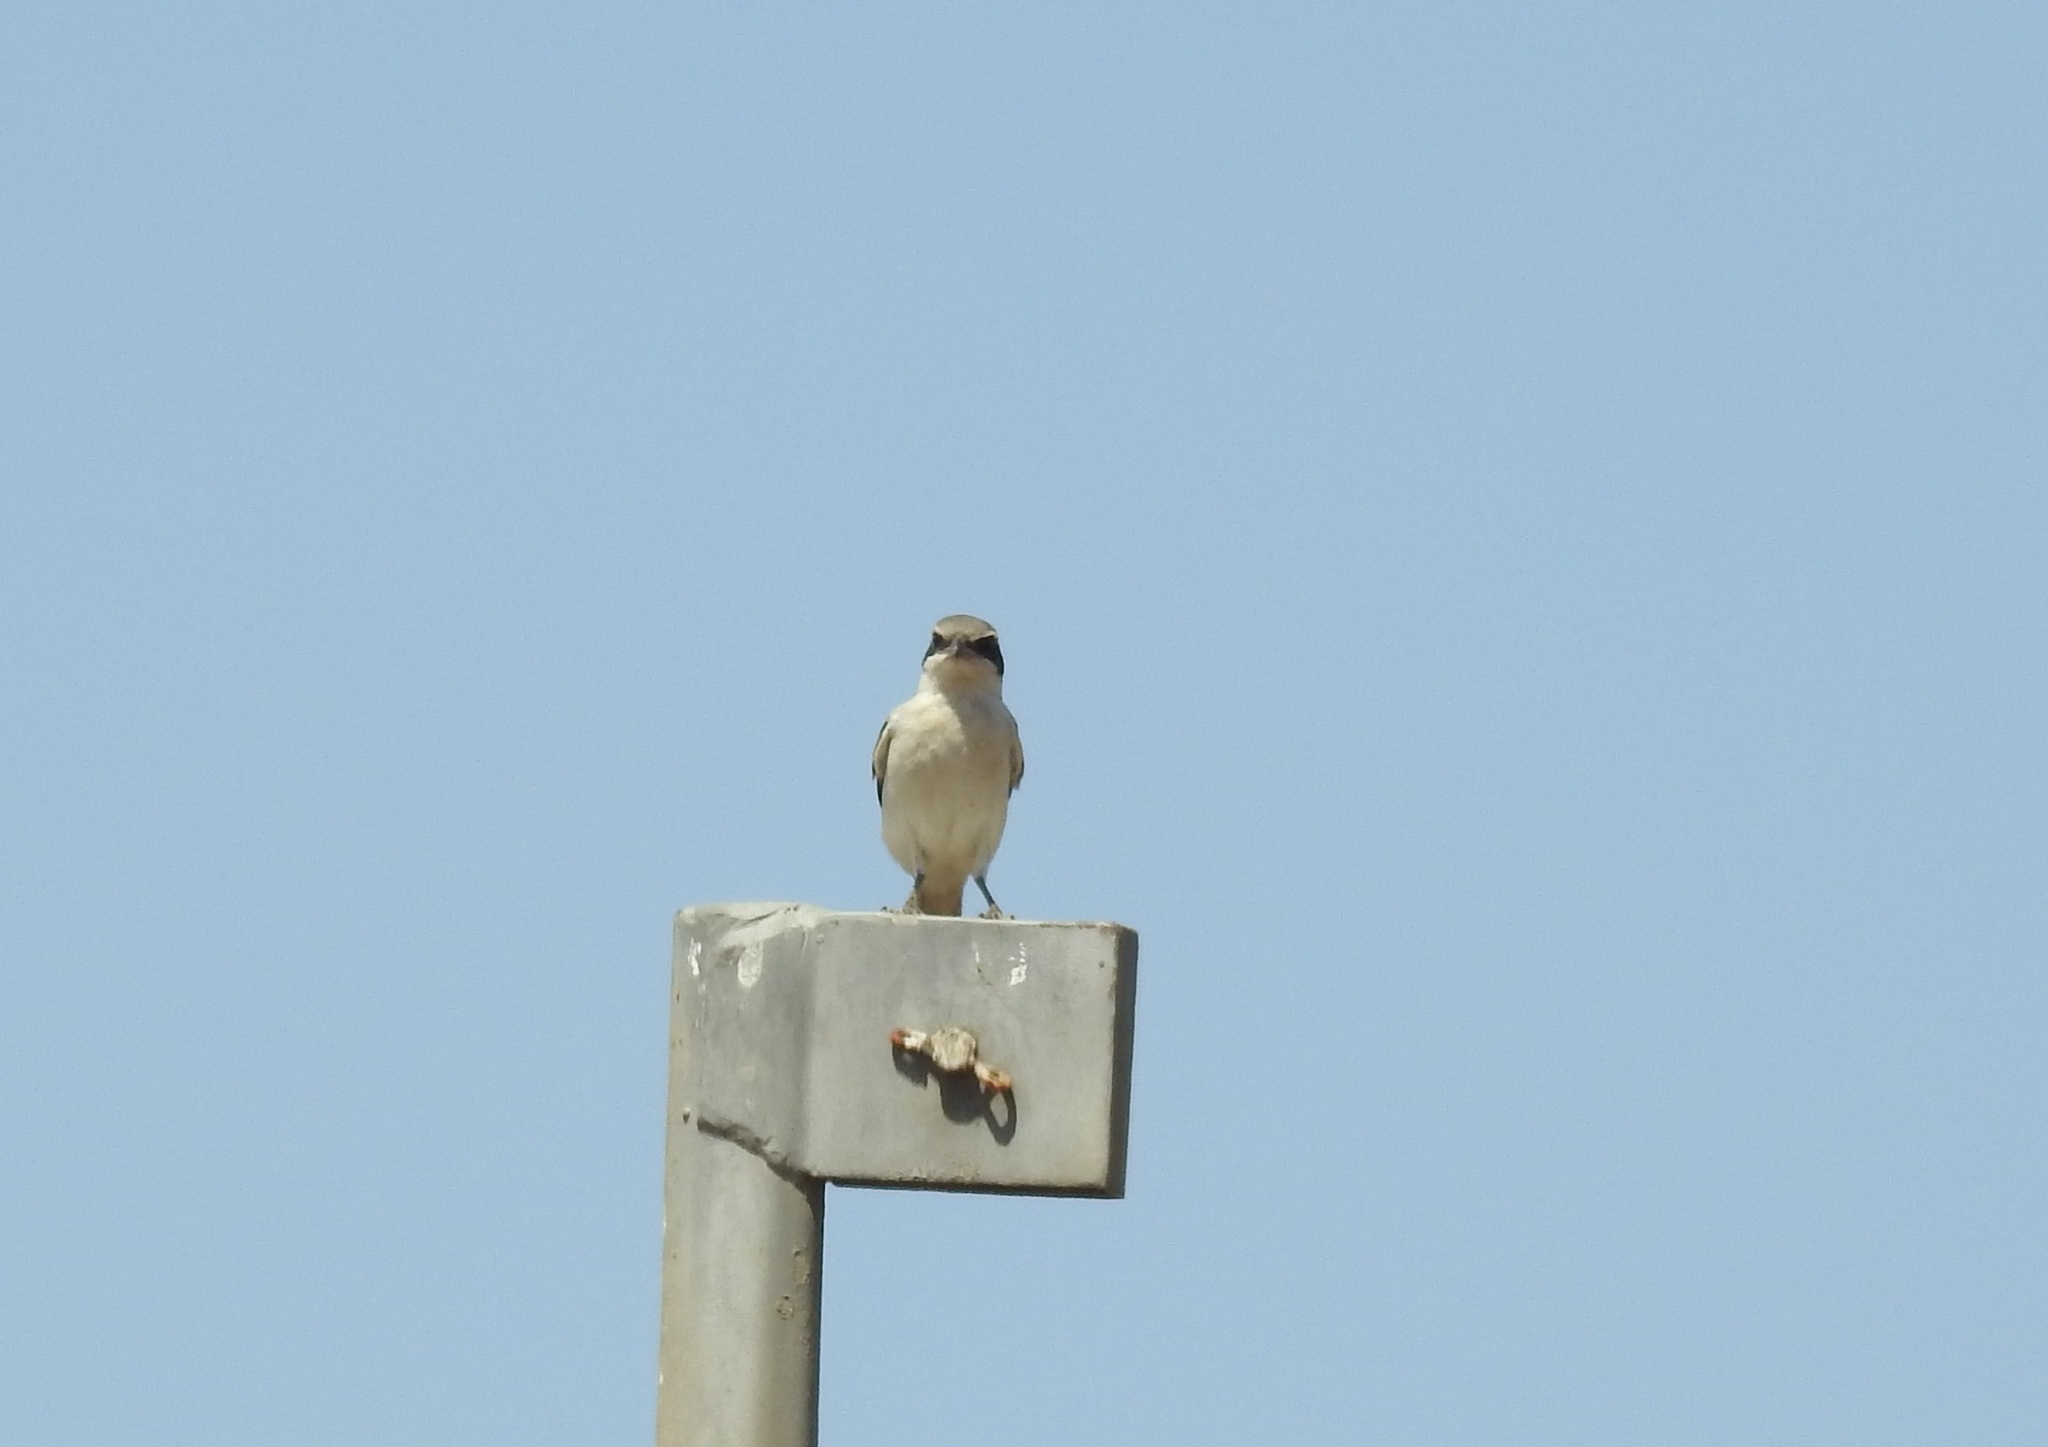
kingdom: Animalia
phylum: Chordata
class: Aves
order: Passeriformes
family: Laniidae
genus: Lanius
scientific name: Lanius excubitor
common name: Great grey shrike
